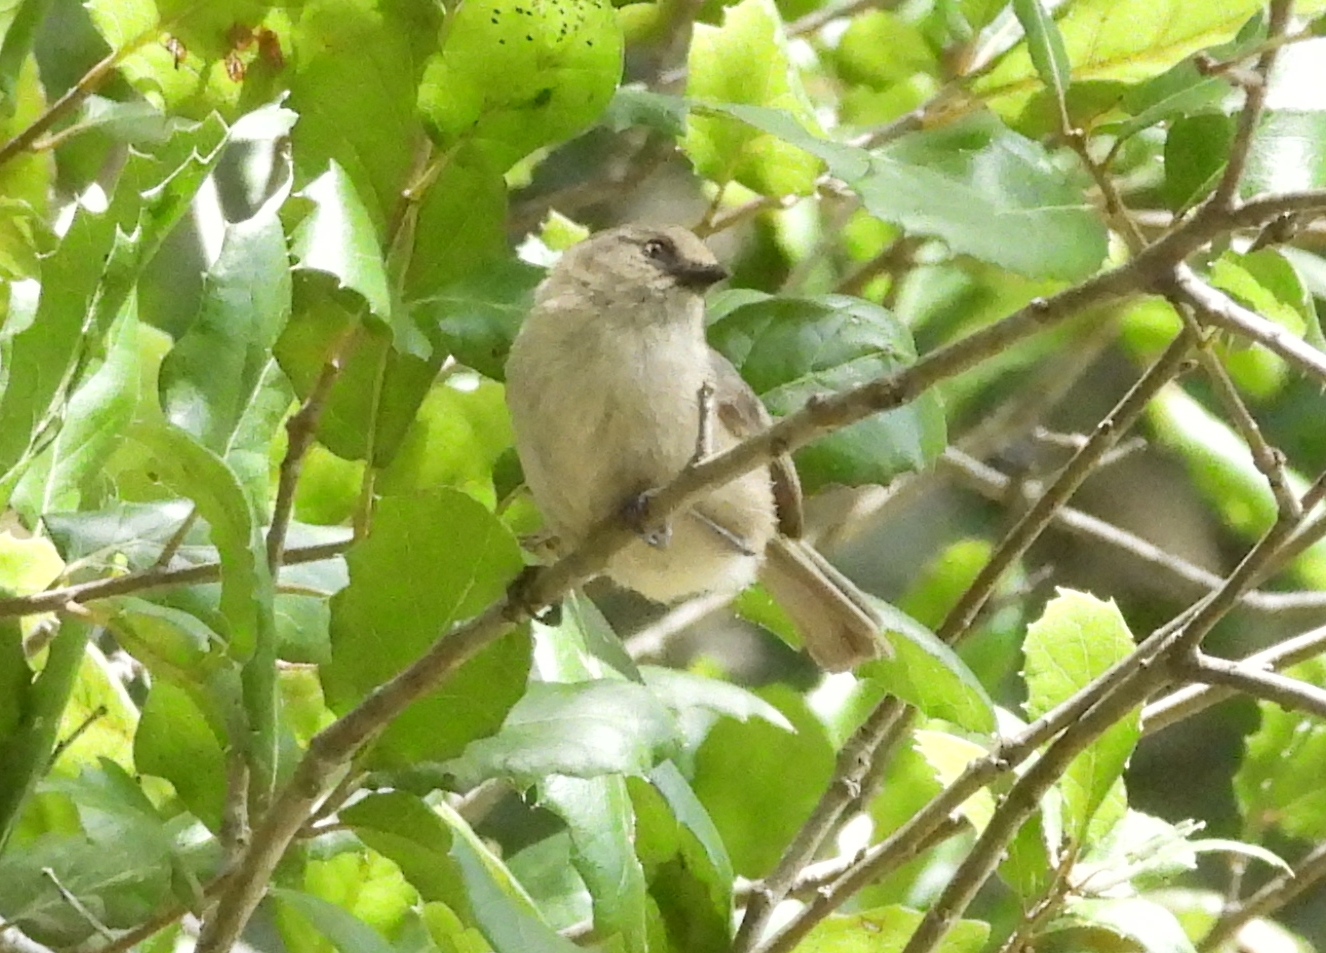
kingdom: Animalia
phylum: Chordata
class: Aves
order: Passeriformes
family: Aegithalidae
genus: Psaltriparus
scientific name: Psaltriparus minimus
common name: American bushtit
